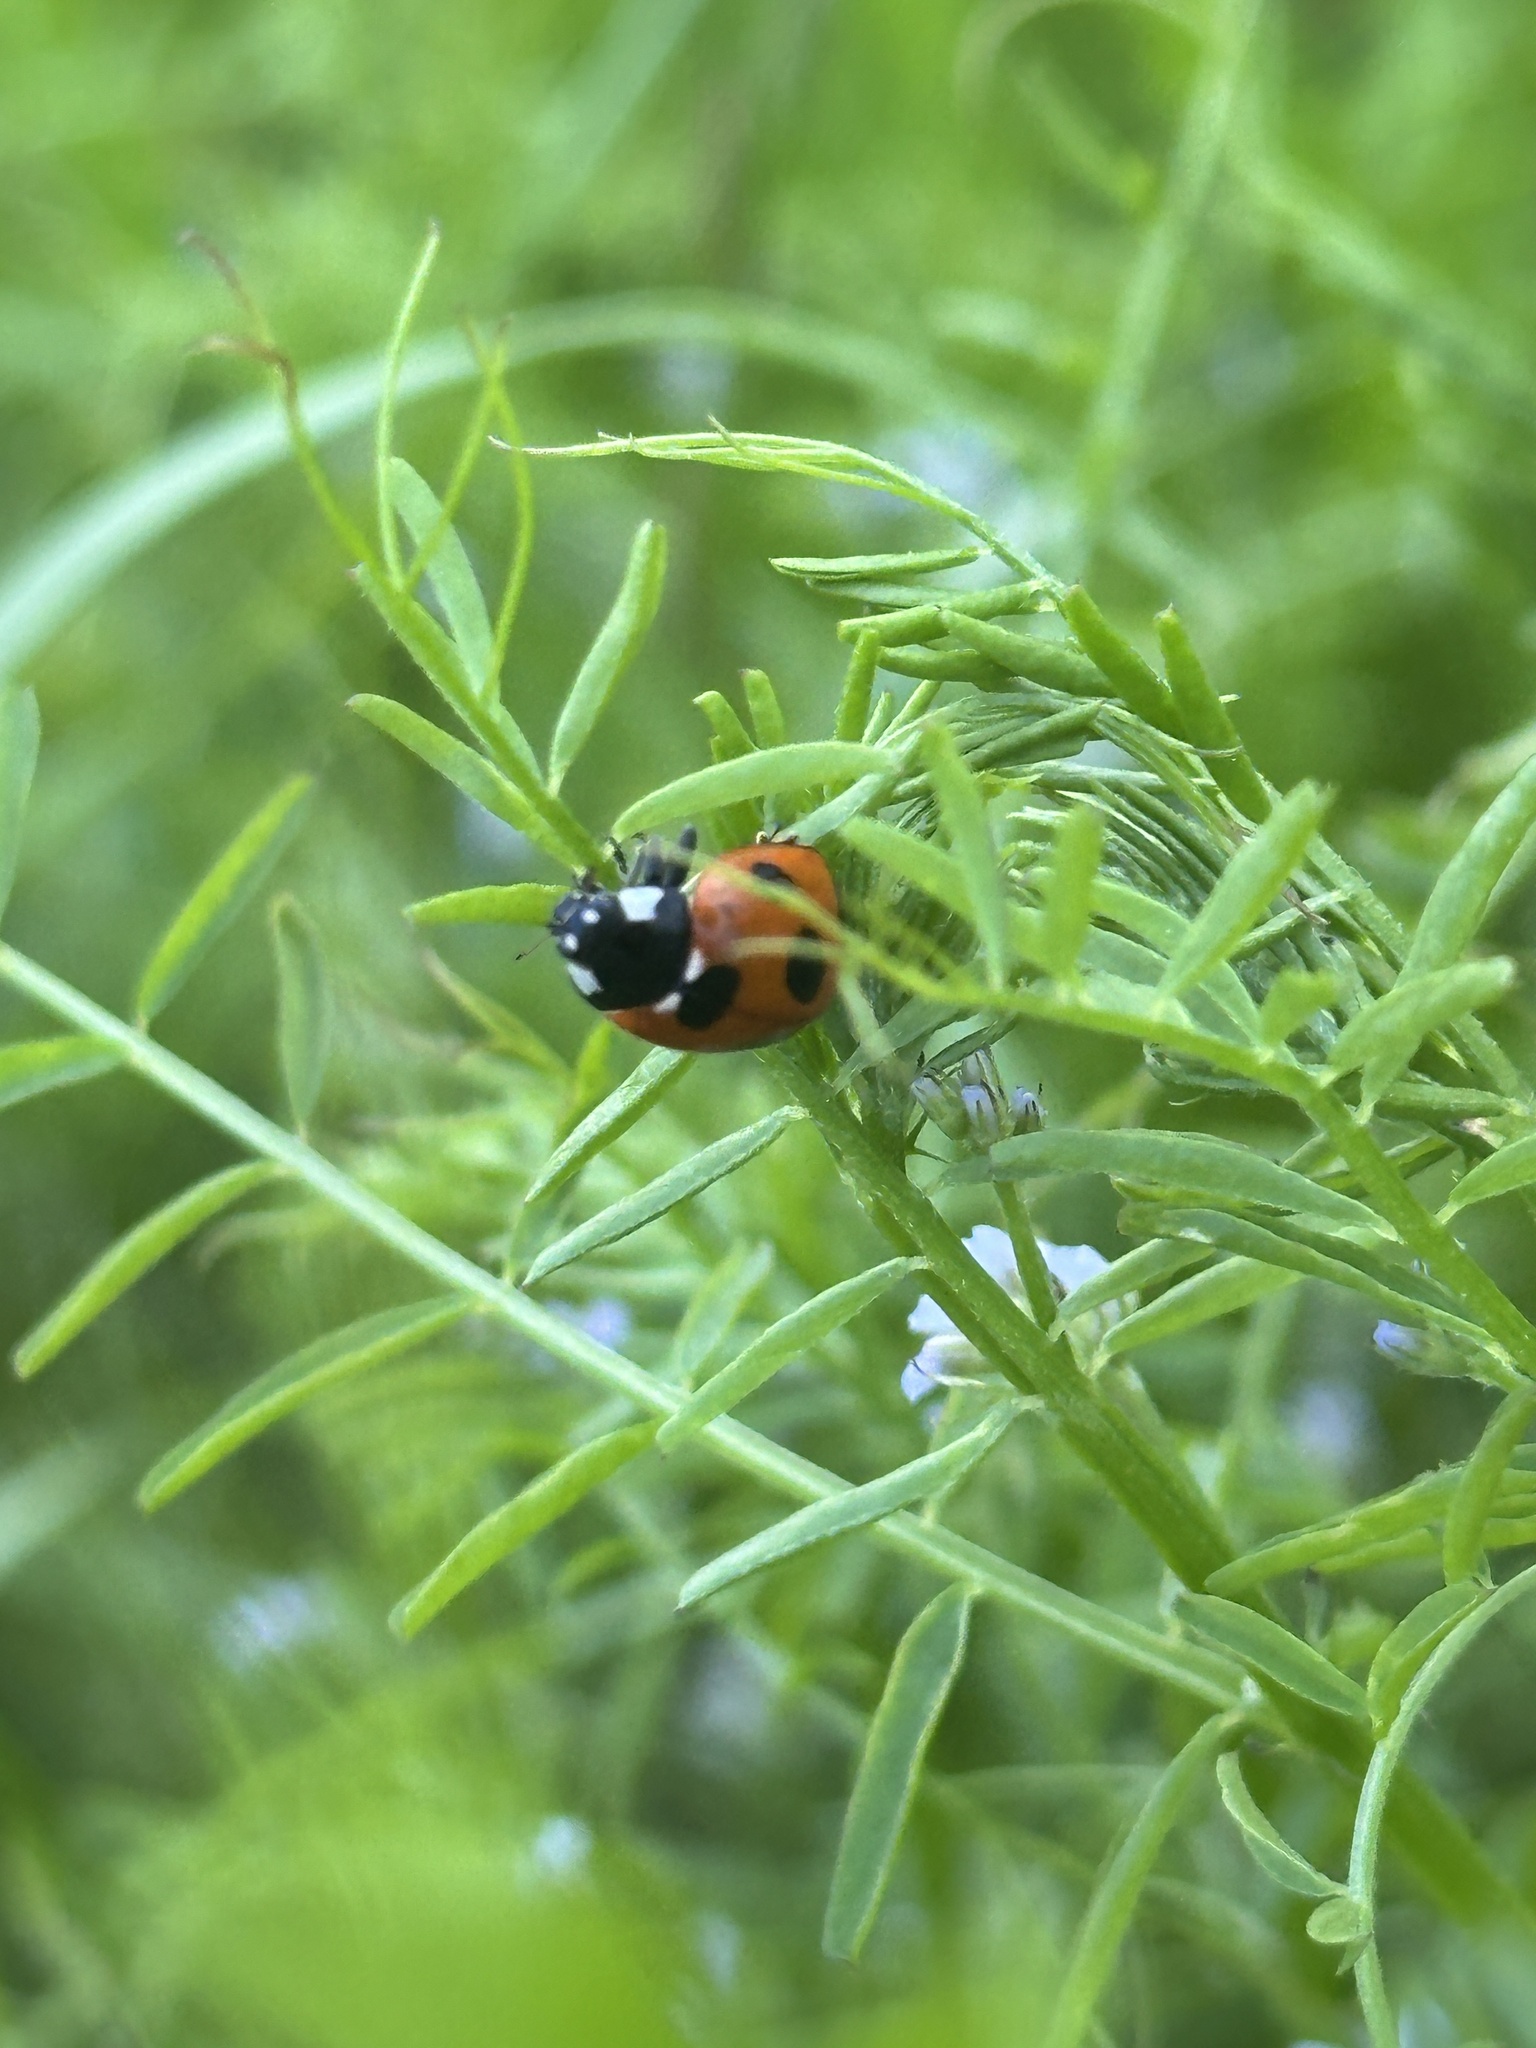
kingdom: Animalia
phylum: Arthropoda
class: Insecta
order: Coleoptera
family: Coccinellidae
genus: Coccinella
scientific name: Coccinella septempunctata
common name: Sevenspotted lady beetle
